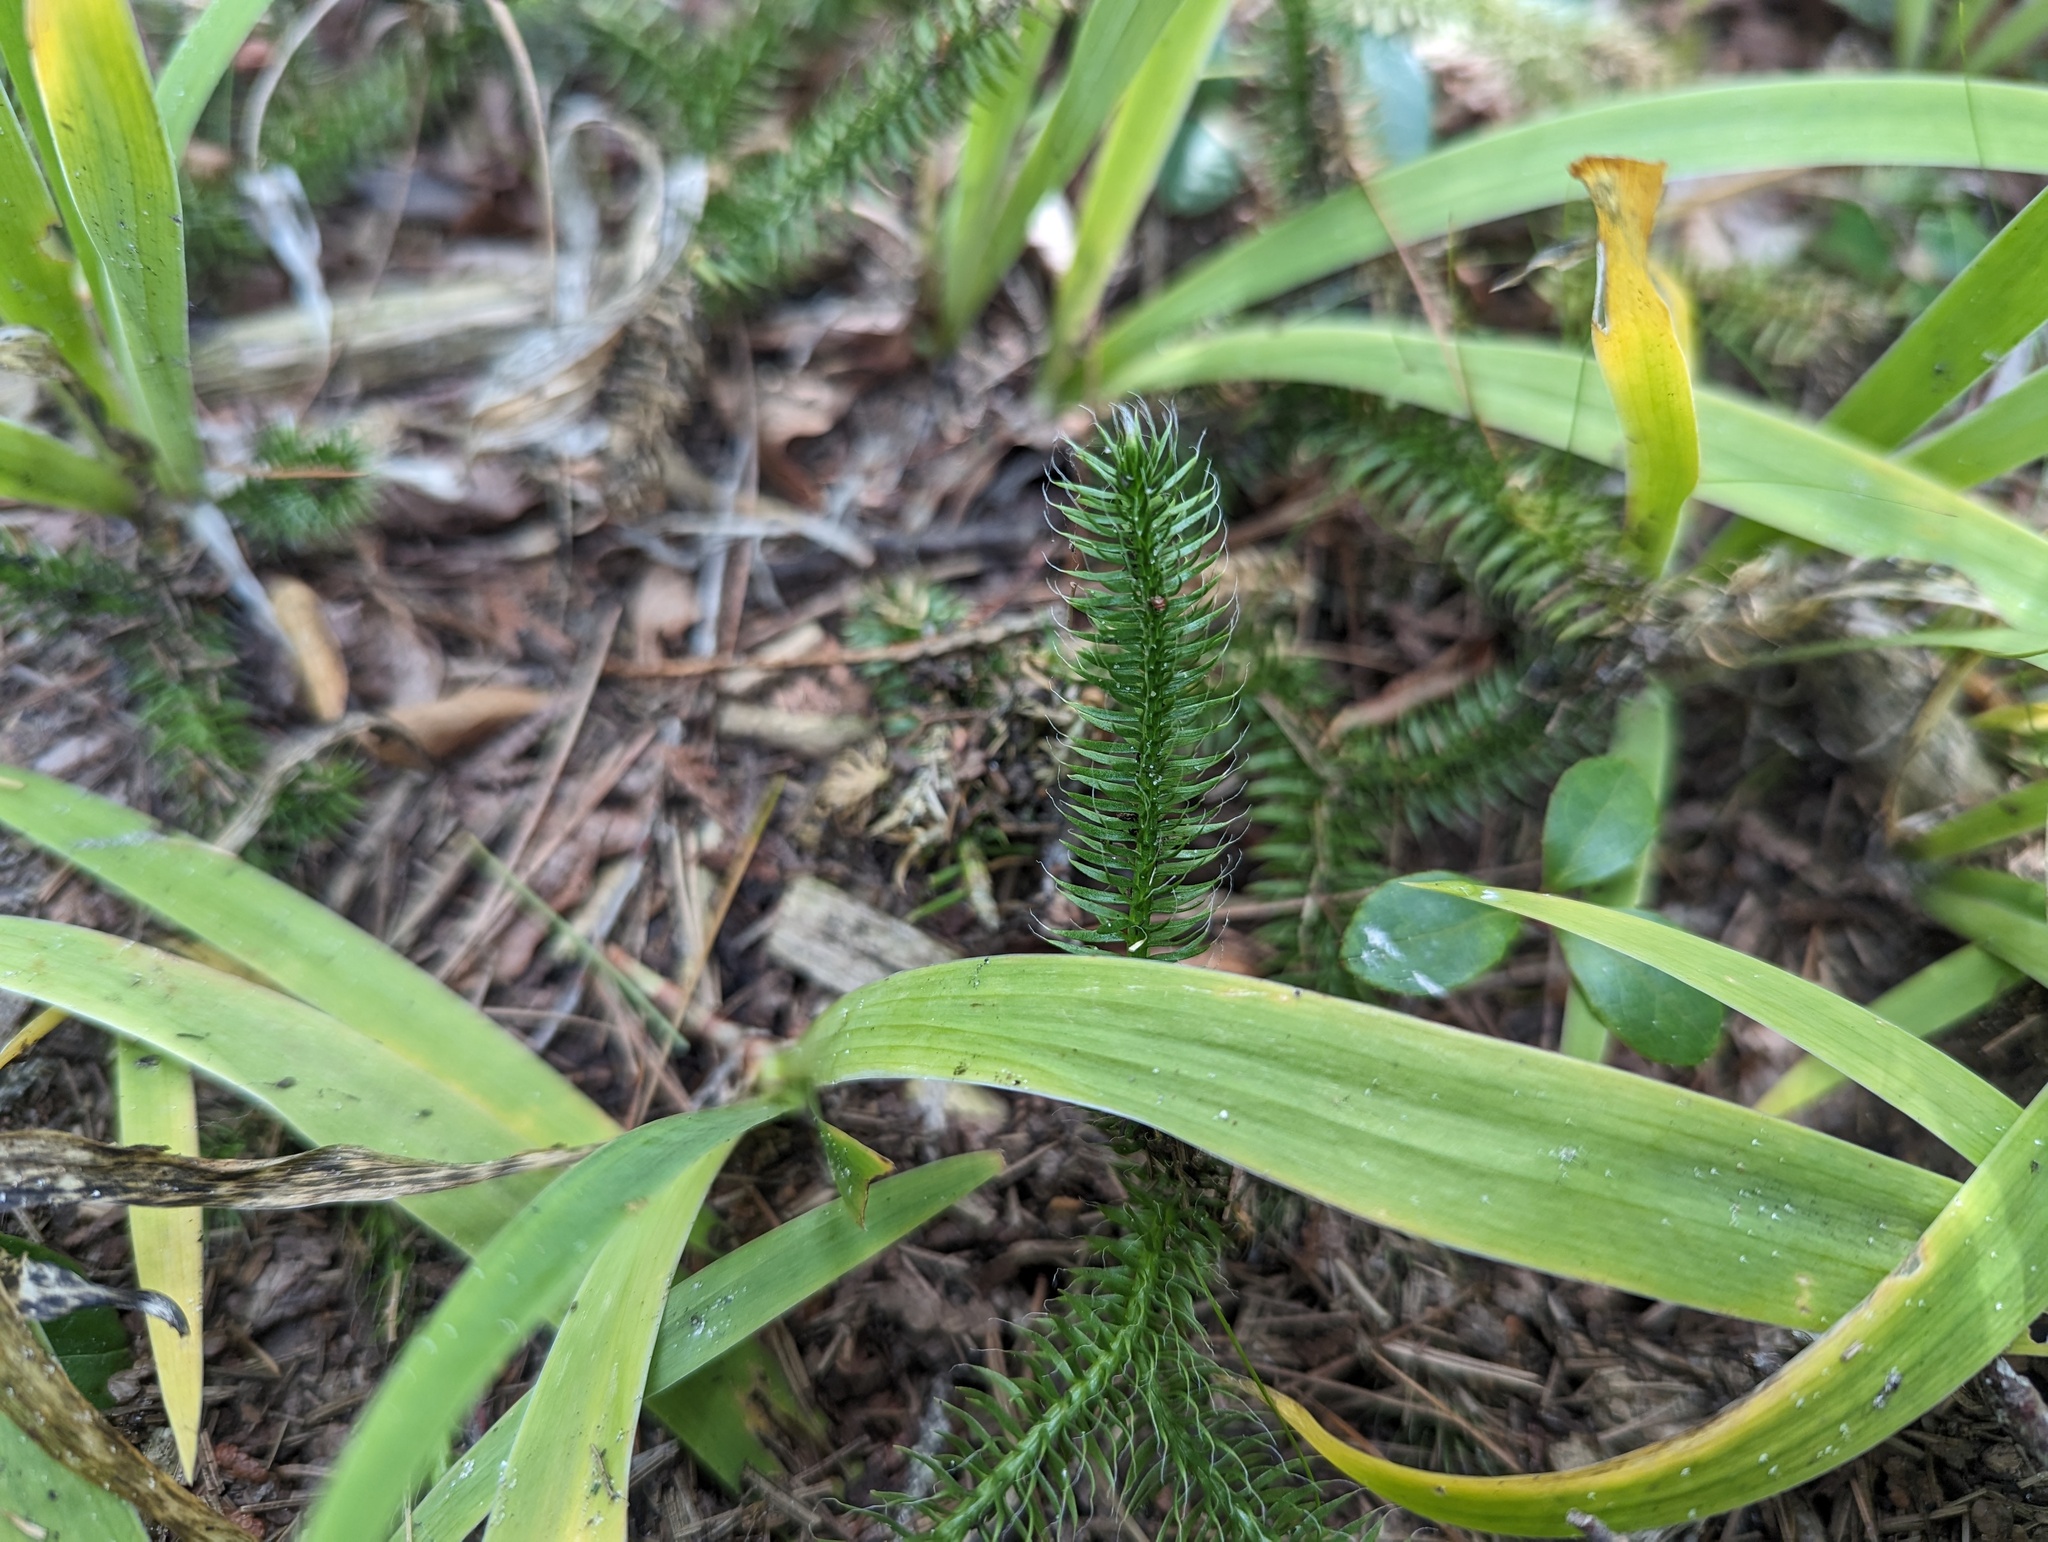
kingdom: Plantae
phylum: Tracheophyta
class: Lycopodiopsida
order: Lycopodiales
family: Lycopodiaceae
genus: Lycopodium
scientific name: Lycopodium clavatum
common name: Stag's-horn clubmoss
